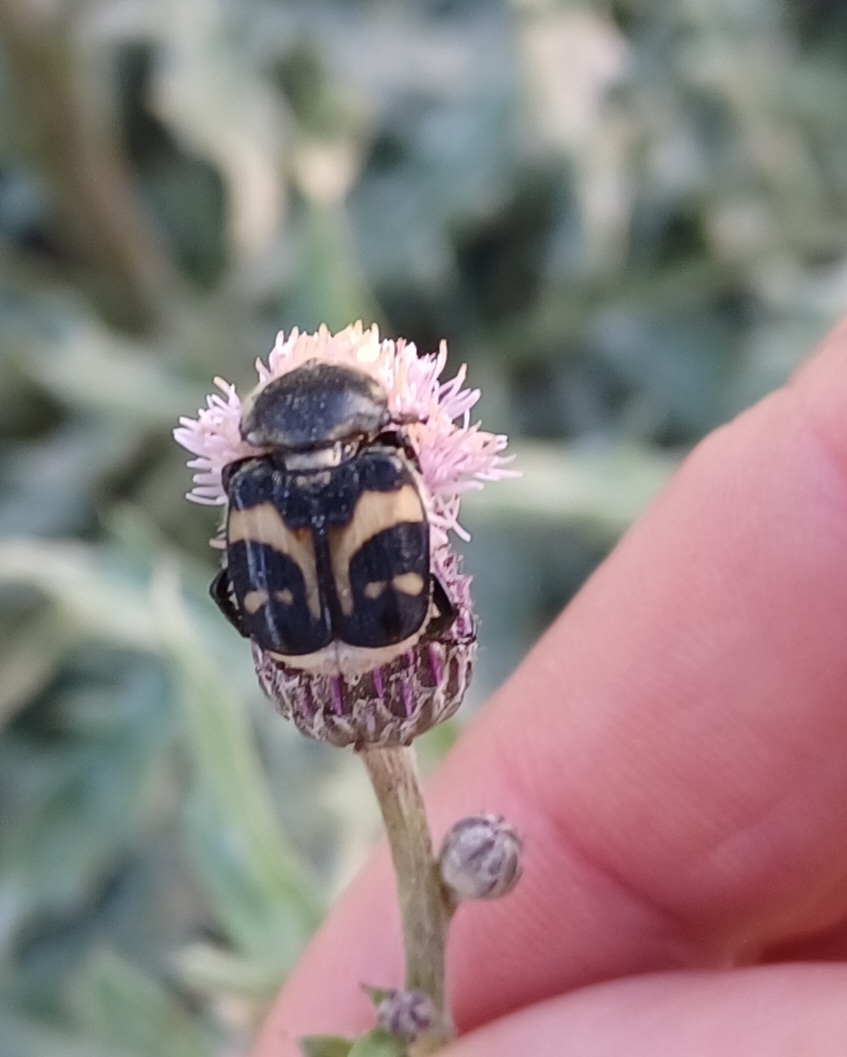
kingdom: Animalia
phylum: Arthropoda
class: Insecta
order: Coleoptera
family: Scarabaeidae
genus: Trichius
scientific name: Trichius fasciatus
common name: Bee beetle
